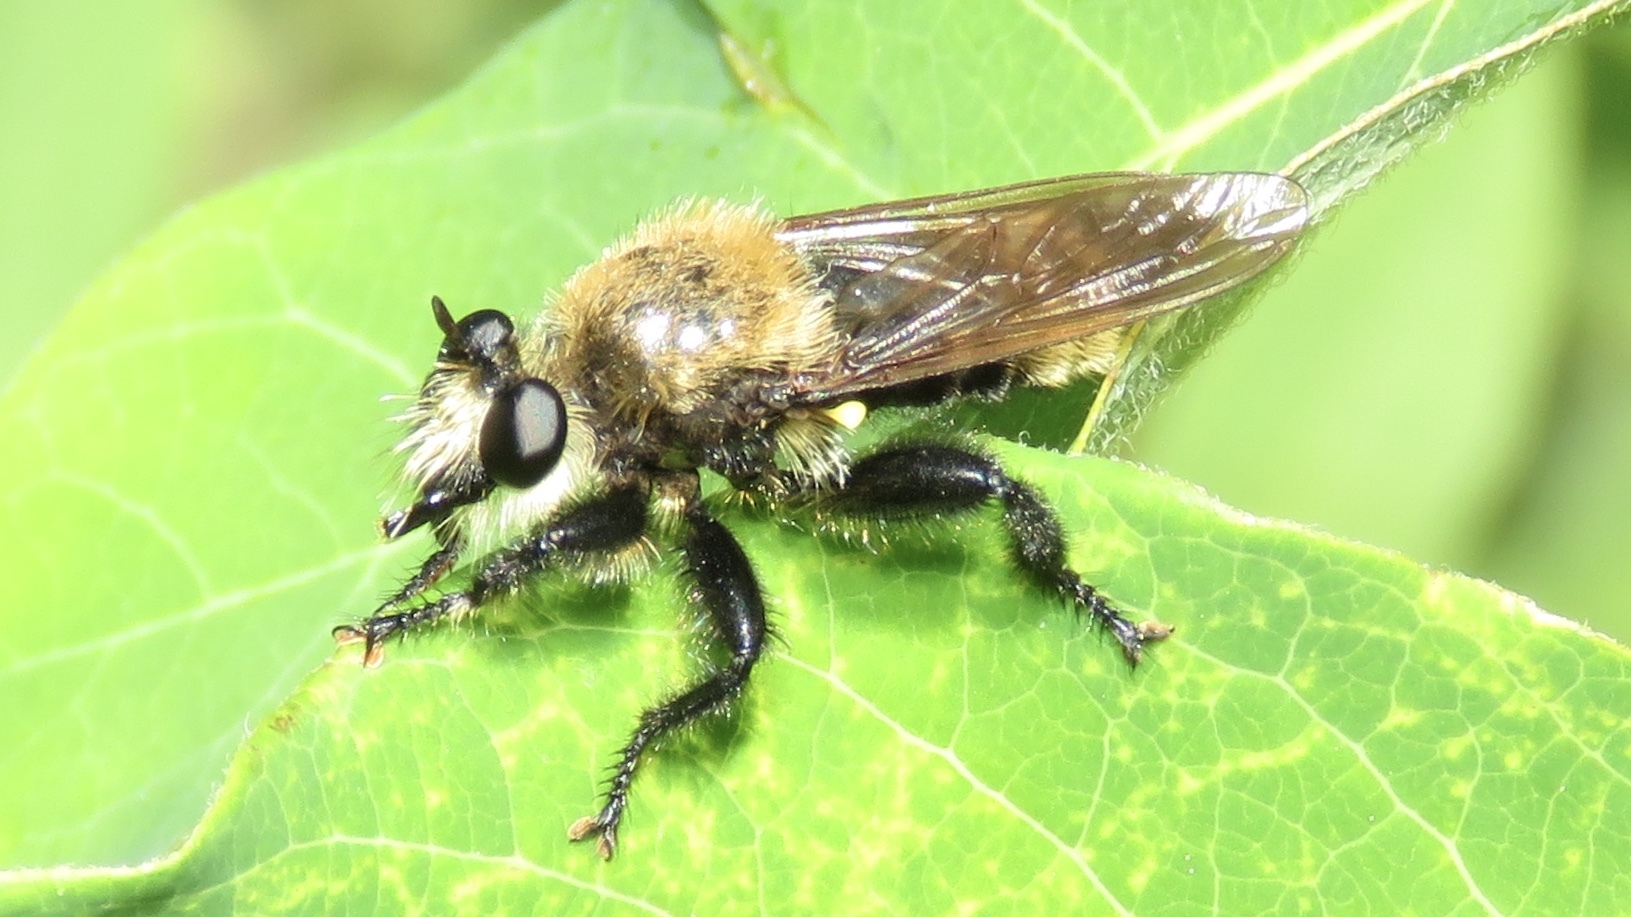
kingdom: Animalia
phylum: Arthropoda
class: Insecta
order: Diptera
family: Asilidae
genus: Laphria
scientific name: Laphria posticata
